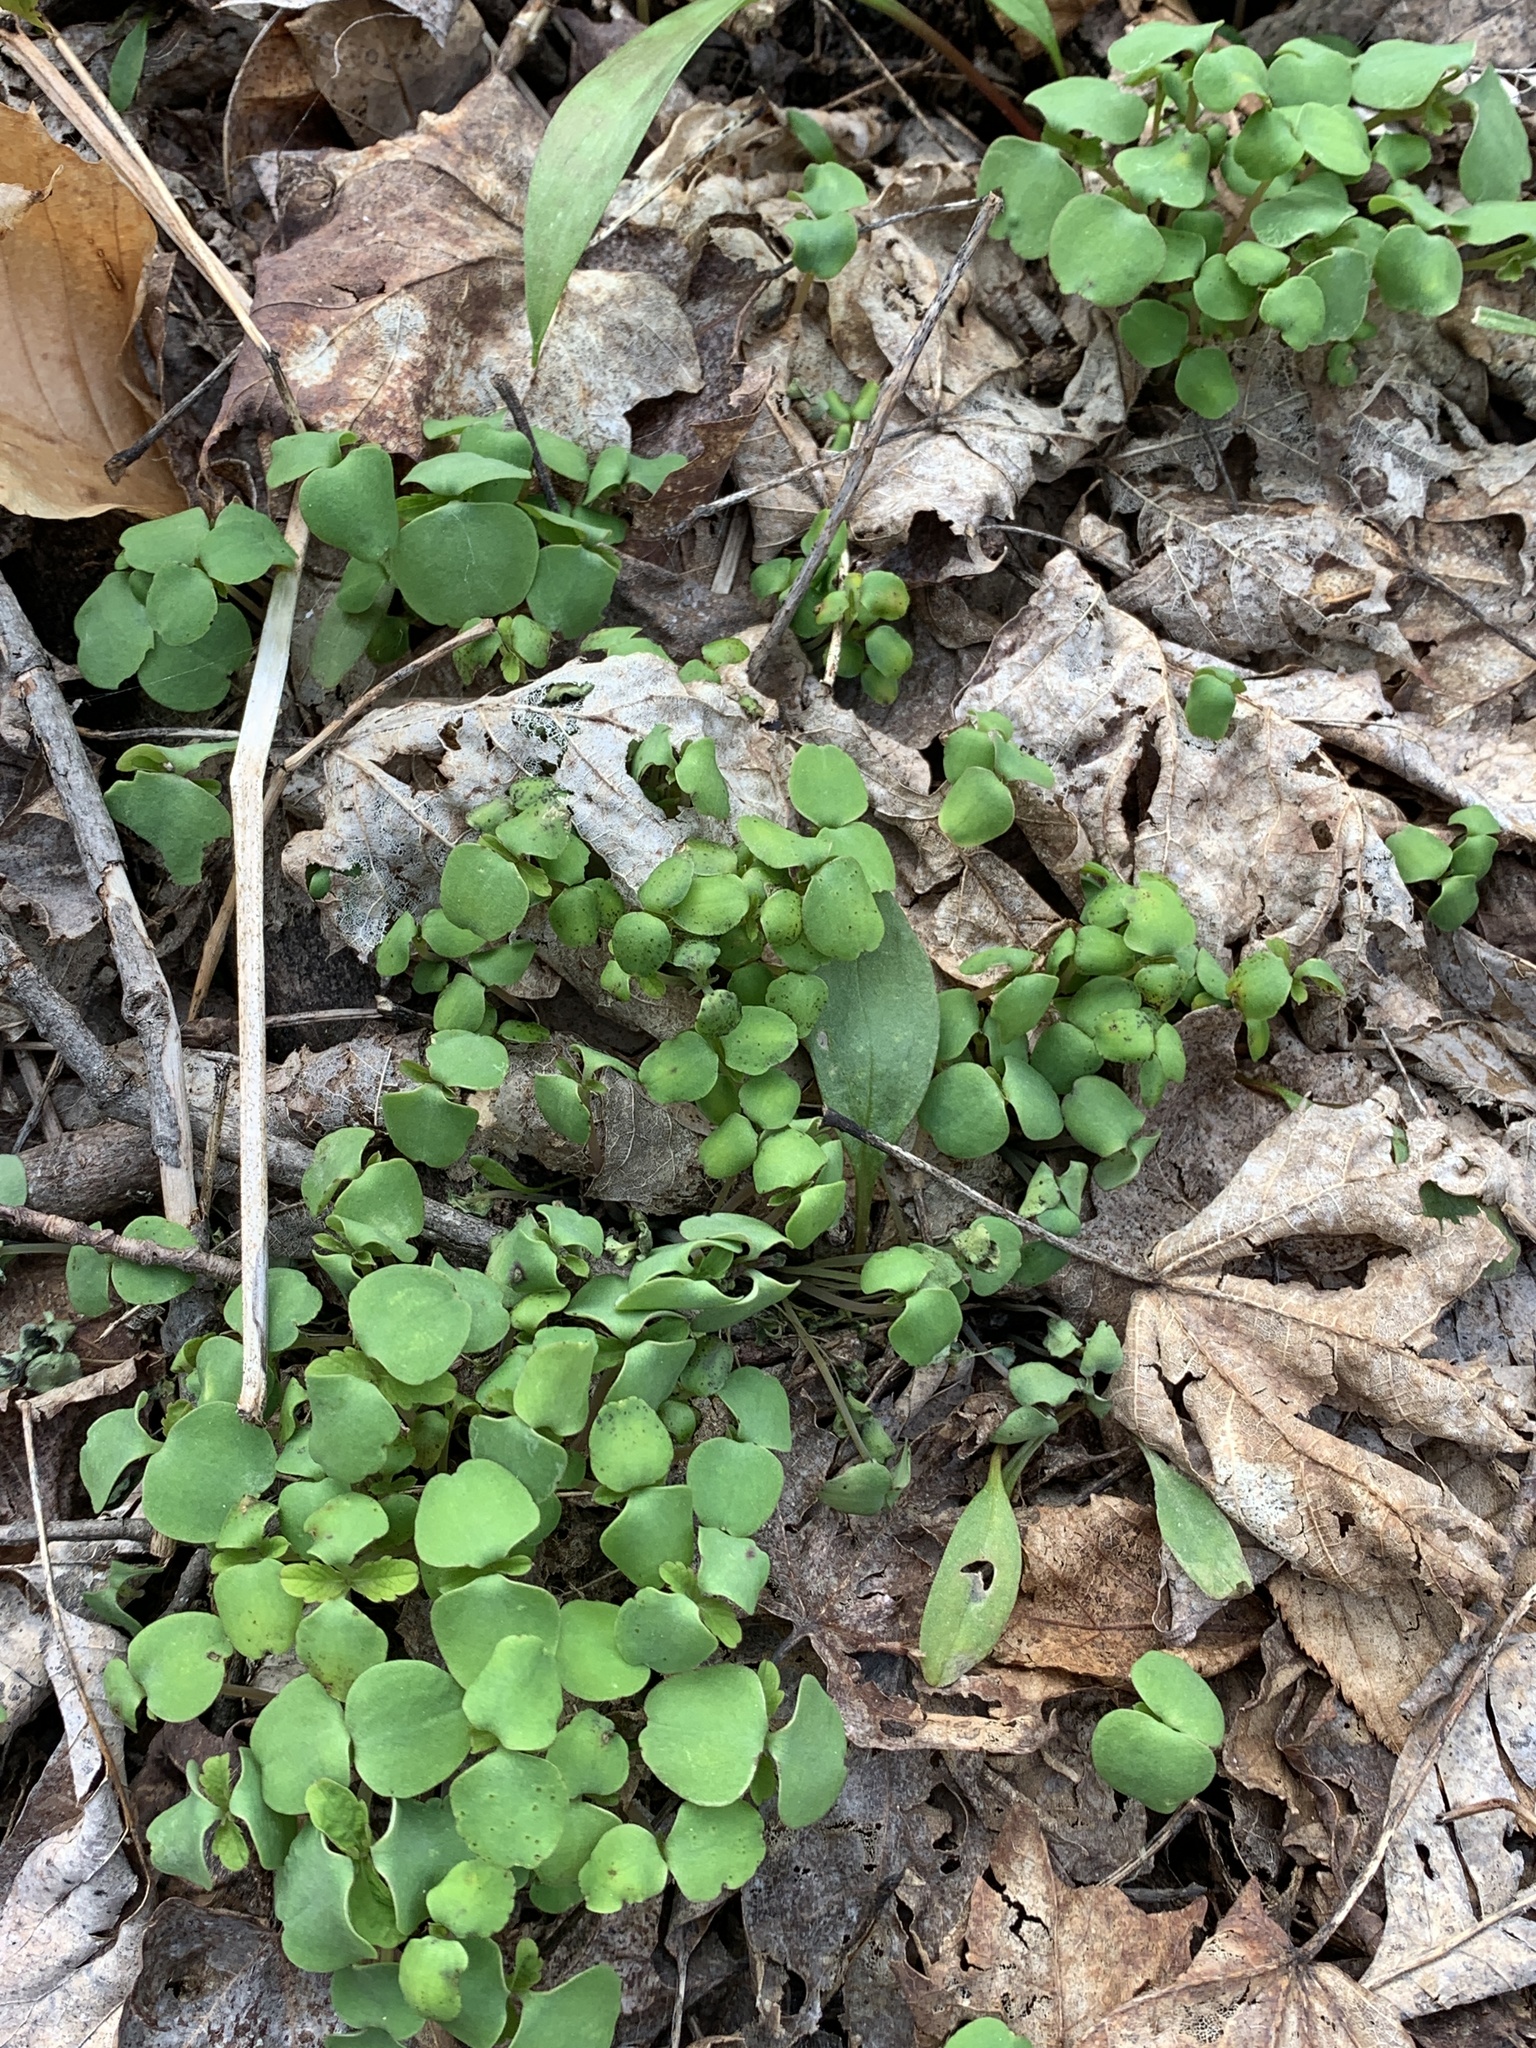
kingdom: Plantae
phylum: Tracheophyta
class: Magnoliopsida
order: Ericales
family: Balsaminaceae
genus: Impatiens
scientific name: Impatiens
